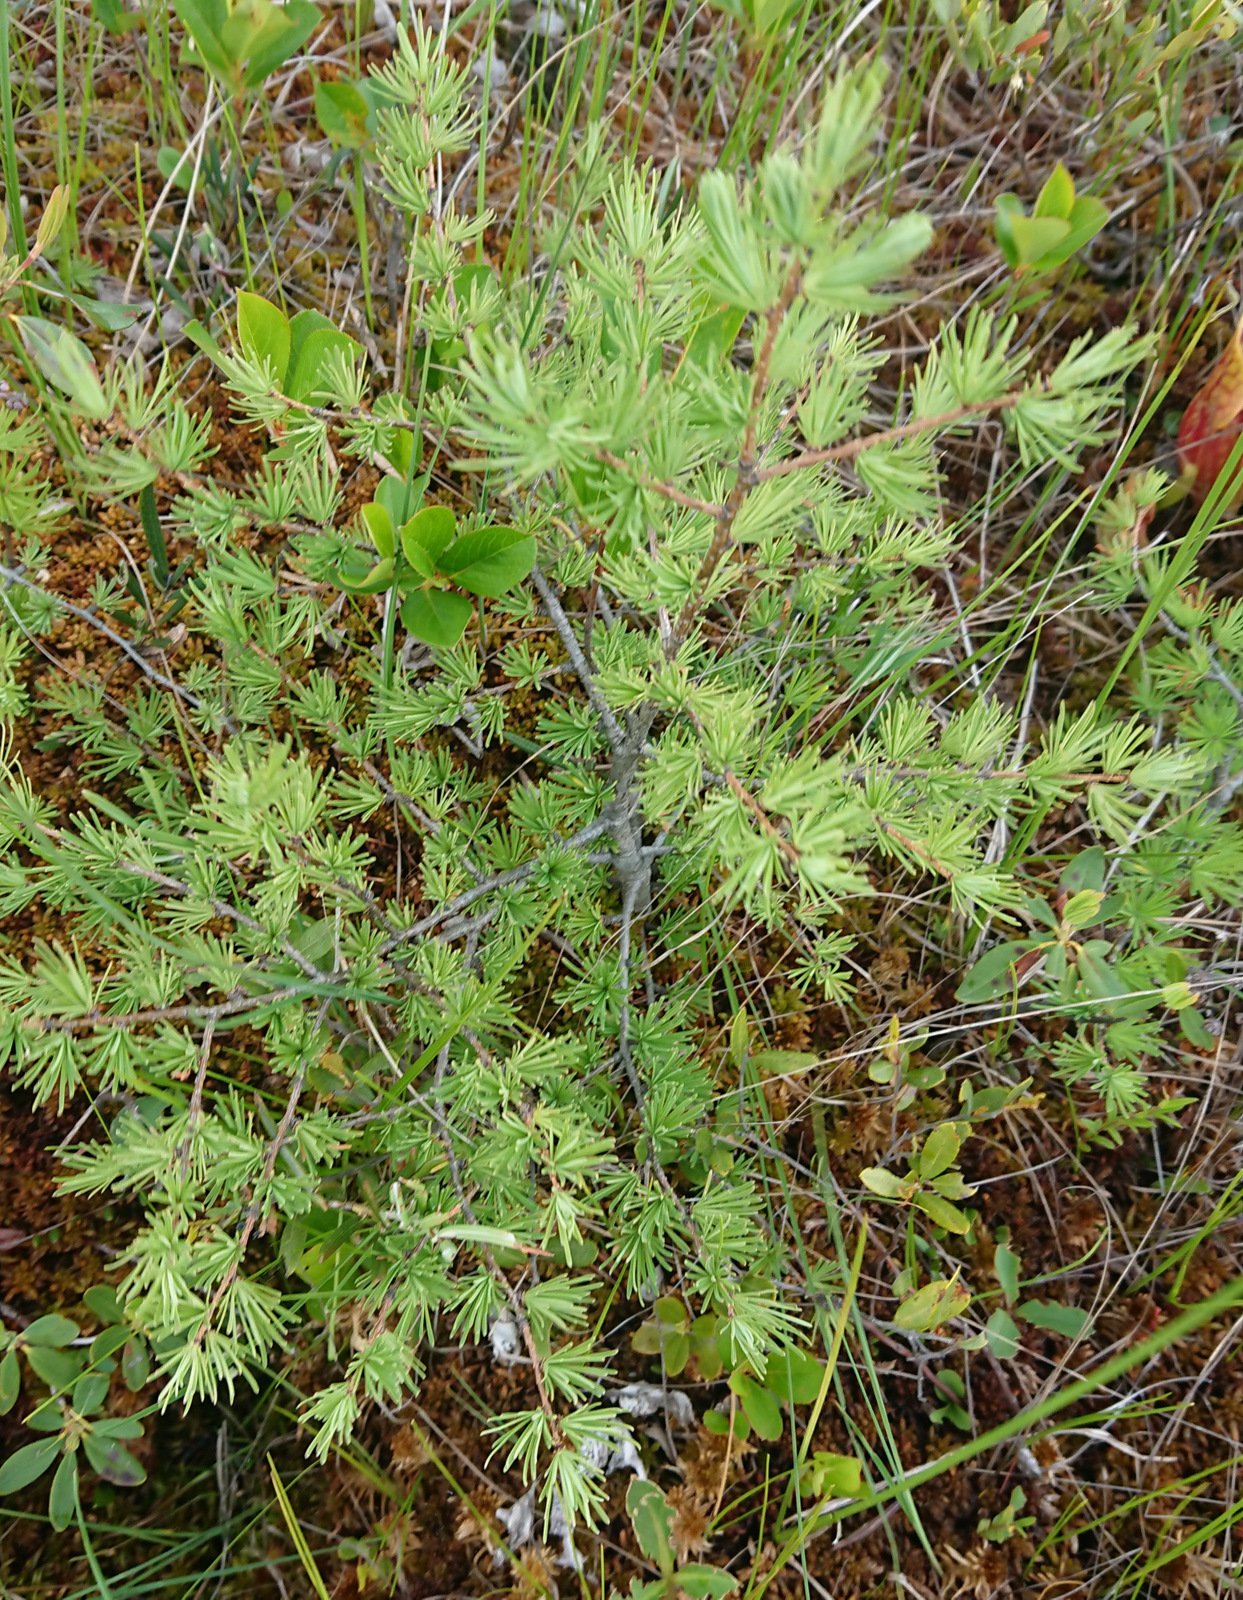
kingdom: Plantae
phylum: Tracheophyta
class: Pinopsida
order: Pinales
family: Pinaceae
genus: Larix
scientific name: Larix laricina
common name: American larch
